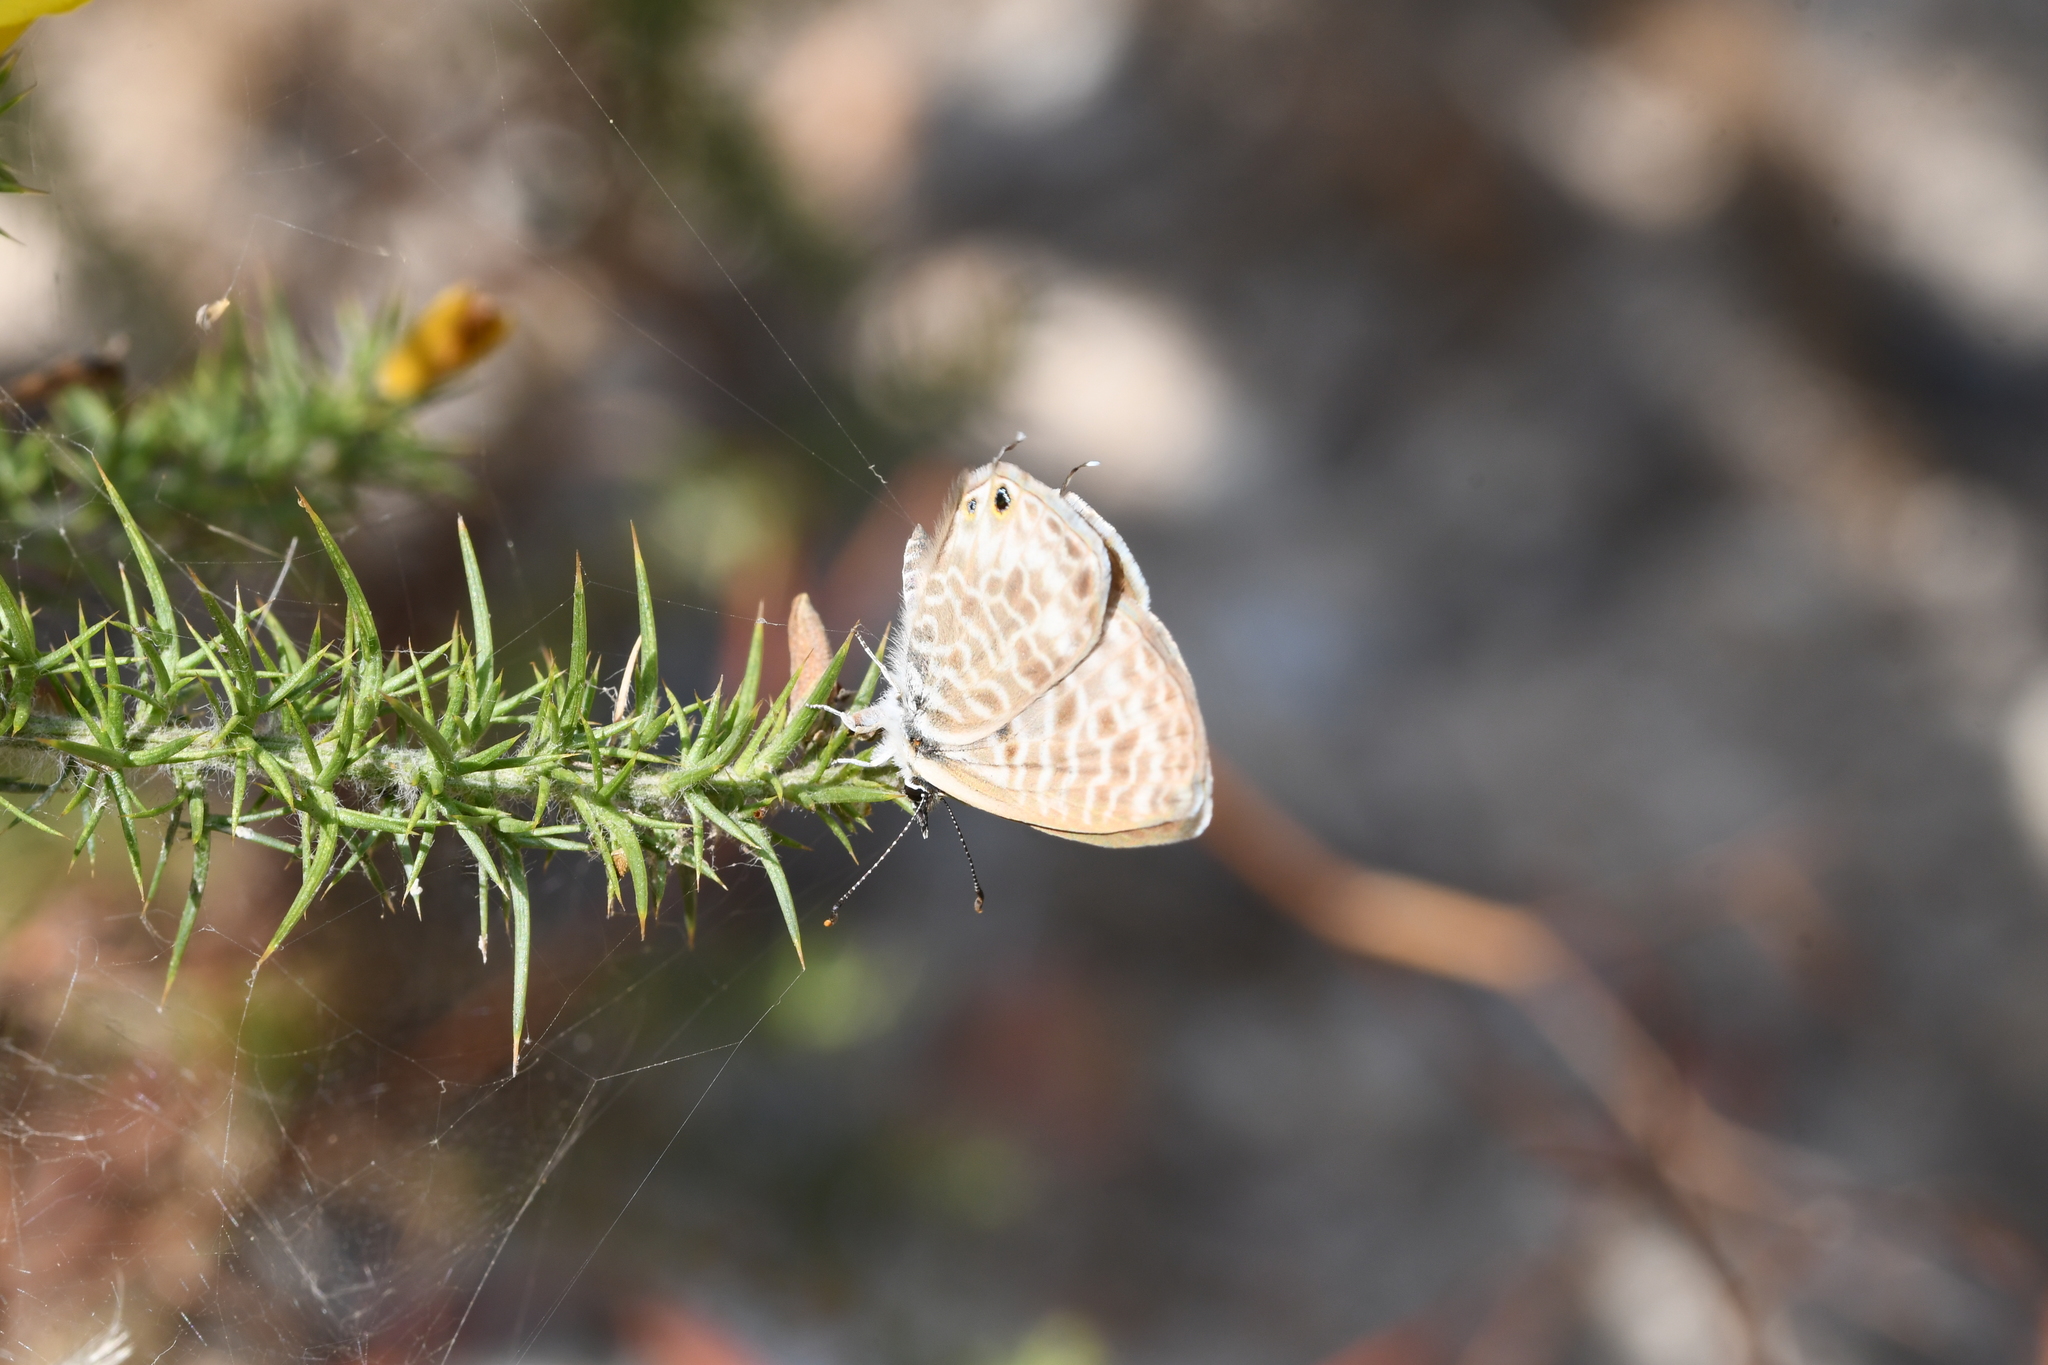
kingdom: Animalia
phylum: Arthropoda
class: Insecta
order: Lepidoptera
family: Lycaenidae
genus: Leptotes
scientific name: Leptotes pirithous
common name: Lang's short-tailed blue
